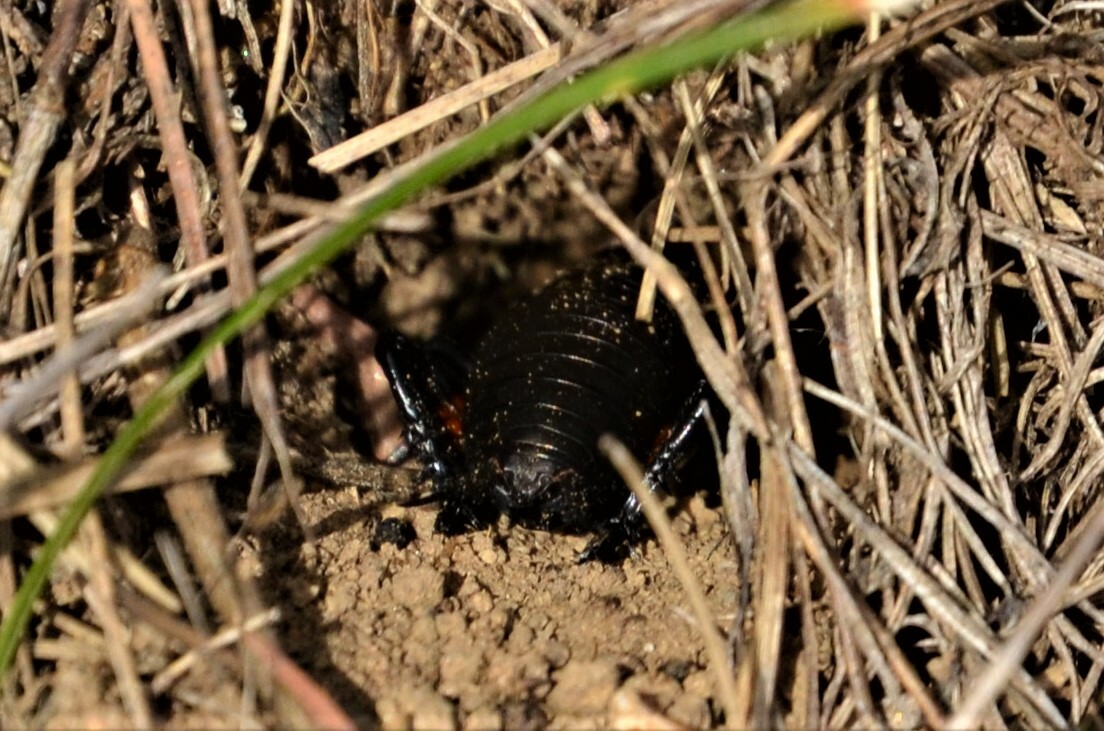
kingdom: Animalia
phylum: Arthropoda
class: Insecta
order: Orthoptera
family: Gryllidae
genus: Gryllus
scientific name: Gryllus campestris
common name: Field cricket
